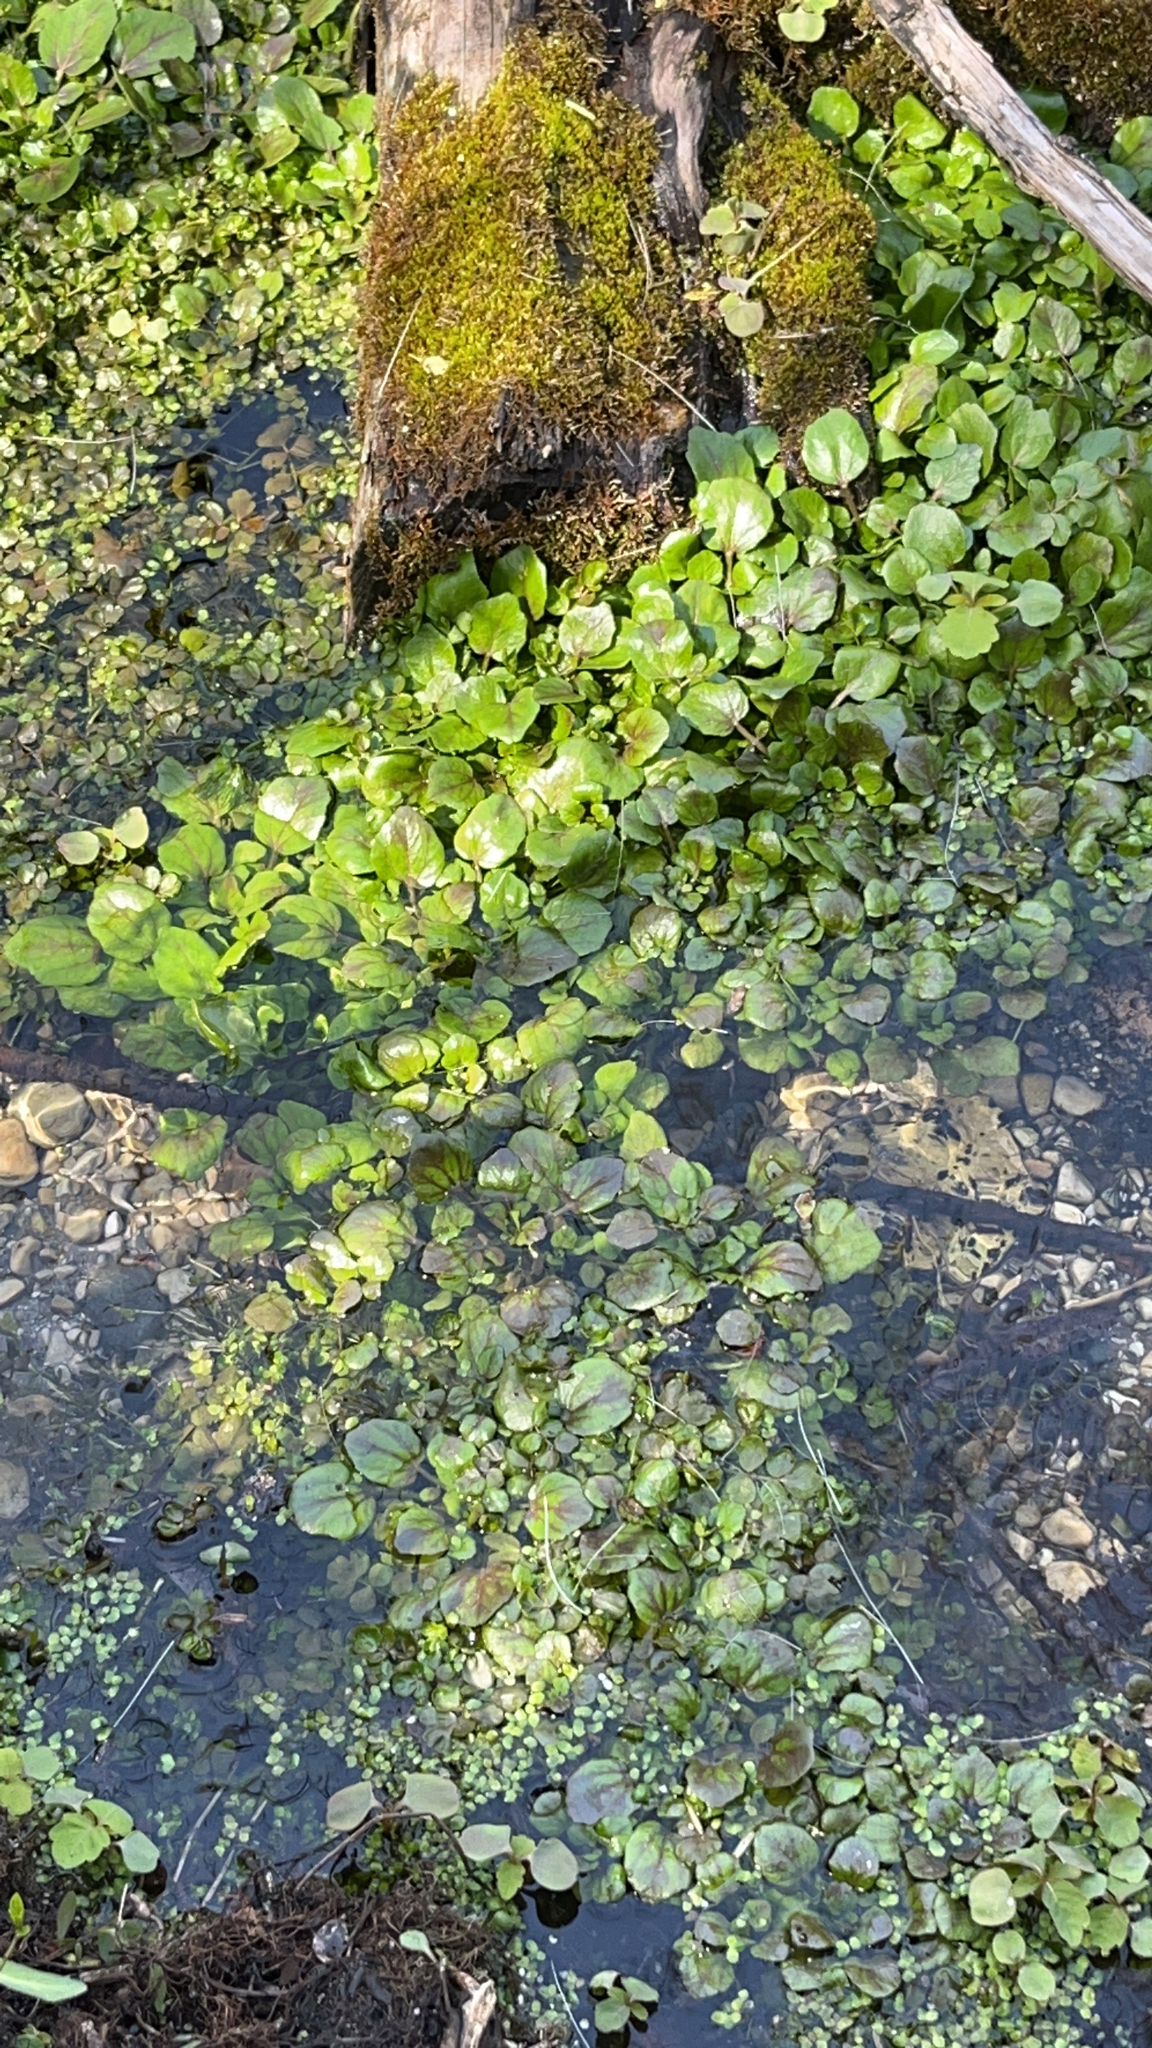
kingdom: Plantae
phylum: Tracheophyta
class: Magnoliopsida
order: Brassicales
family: Brassicaceae
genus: Nasturtium
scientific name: Nasturtium officinale
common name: Watercress
